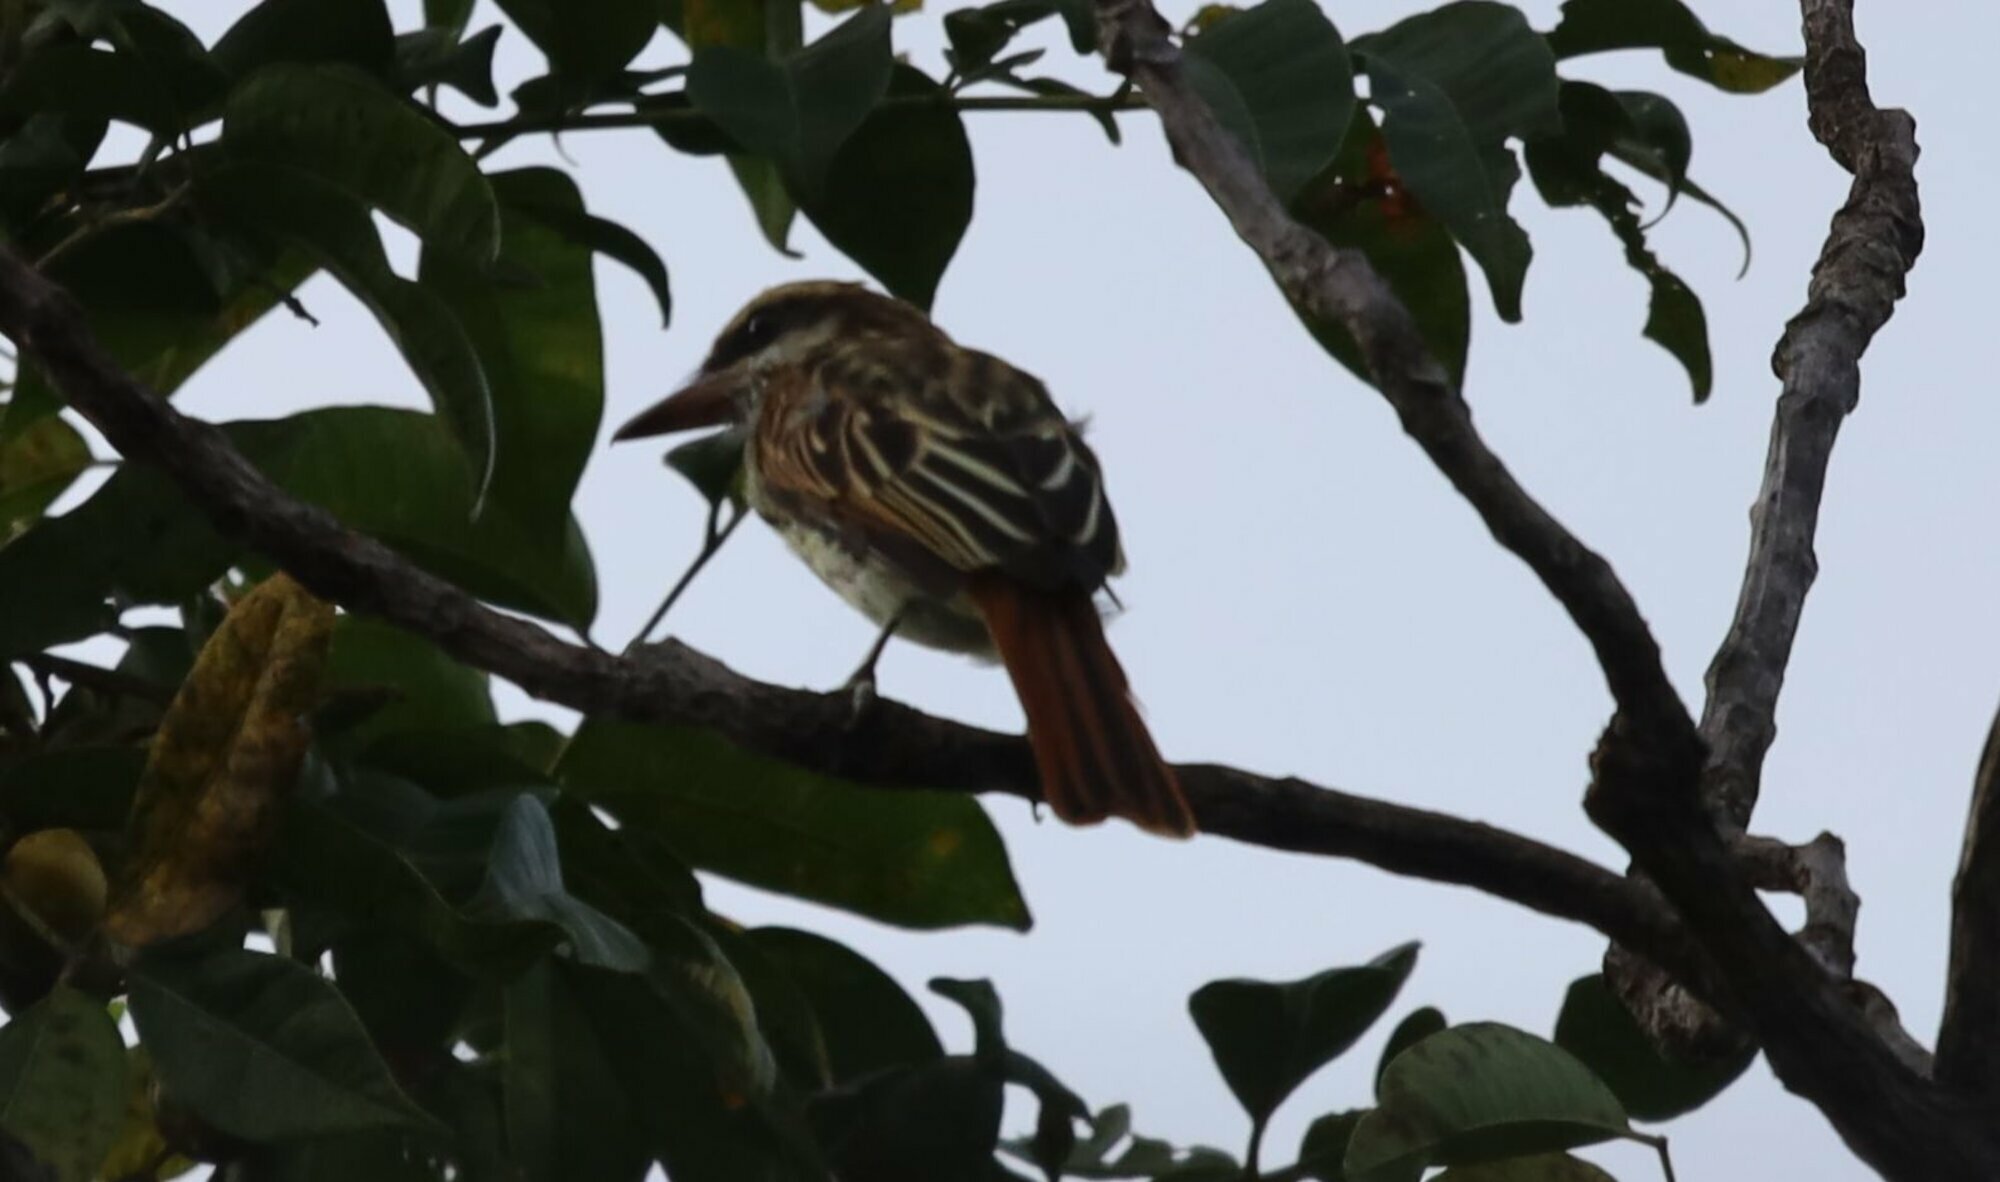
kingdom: Animalia
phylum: Chordata
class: Aves
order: Passeriformes
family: Tyrannidae
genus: Myiodynastes
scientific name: Myiodynastes maculatus
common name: Streaked flycatcher
